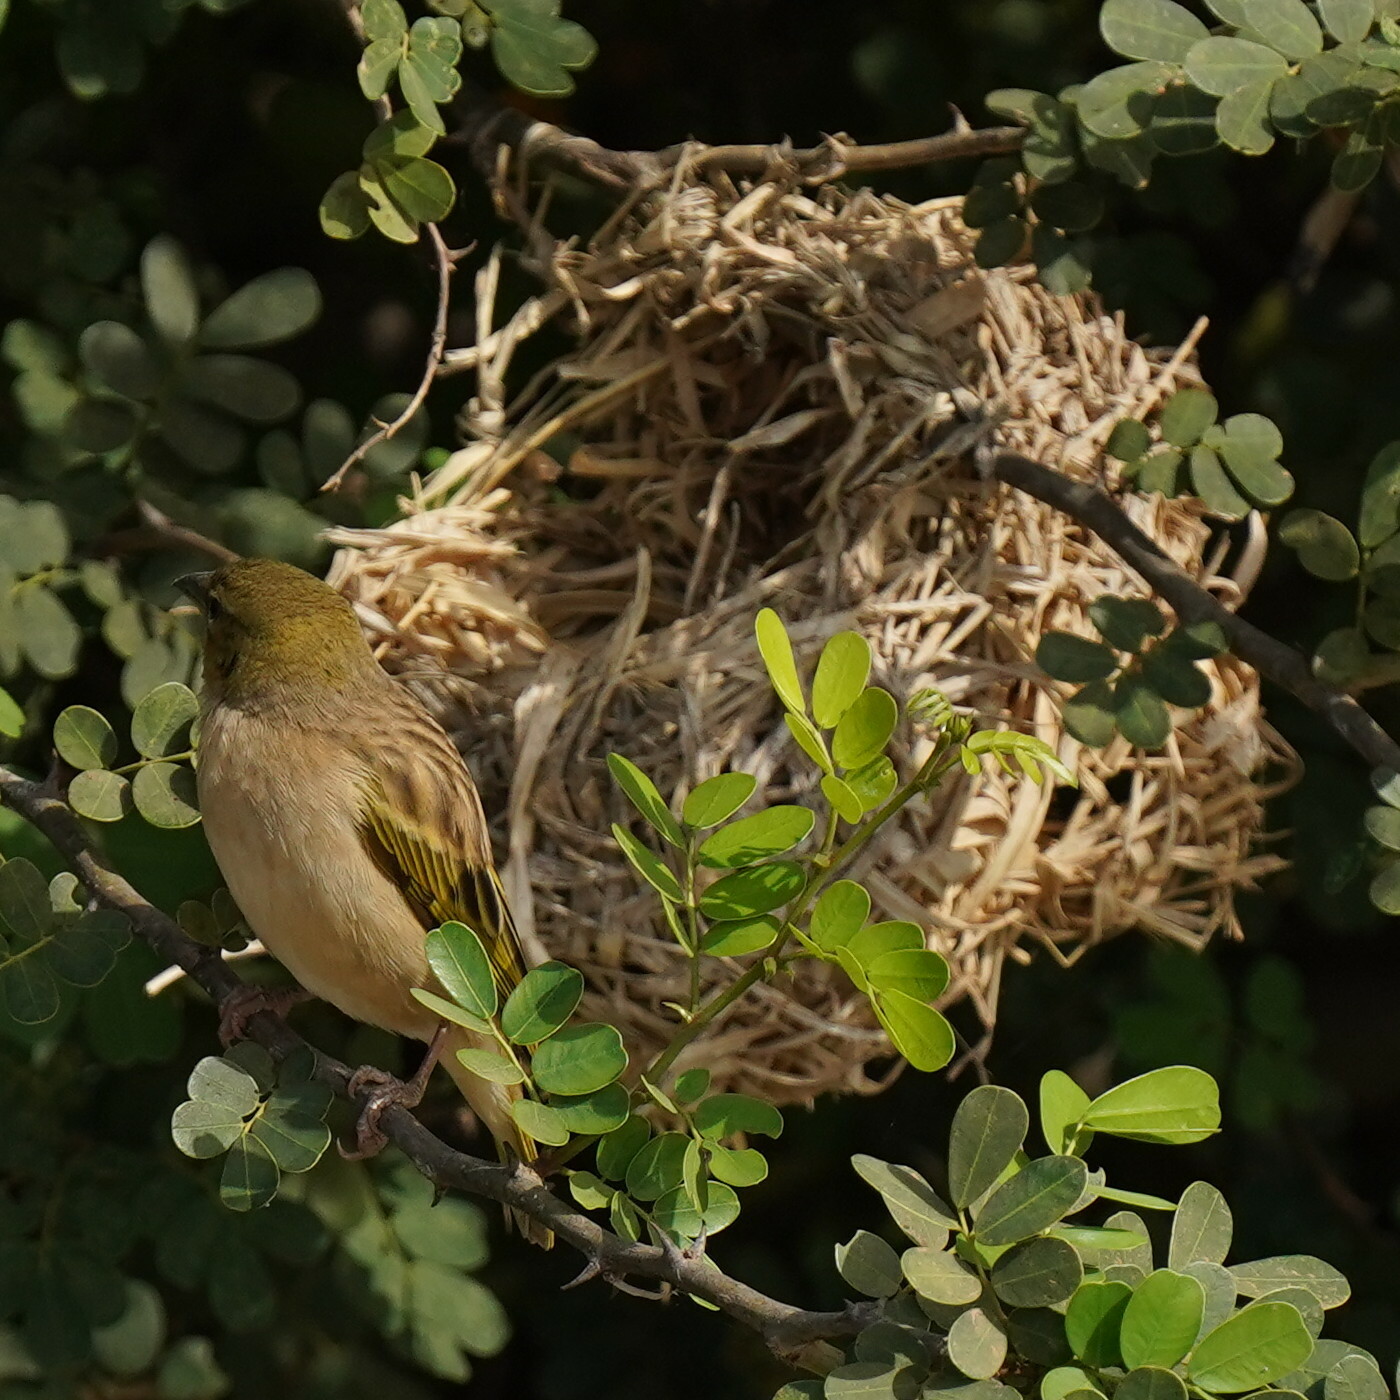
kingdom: Animalia
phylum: Chordata
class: Aves
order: Passeriformes
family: Ploceidae
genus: Ploceus
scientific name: Ploceus cucullatus
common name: Village weaver
